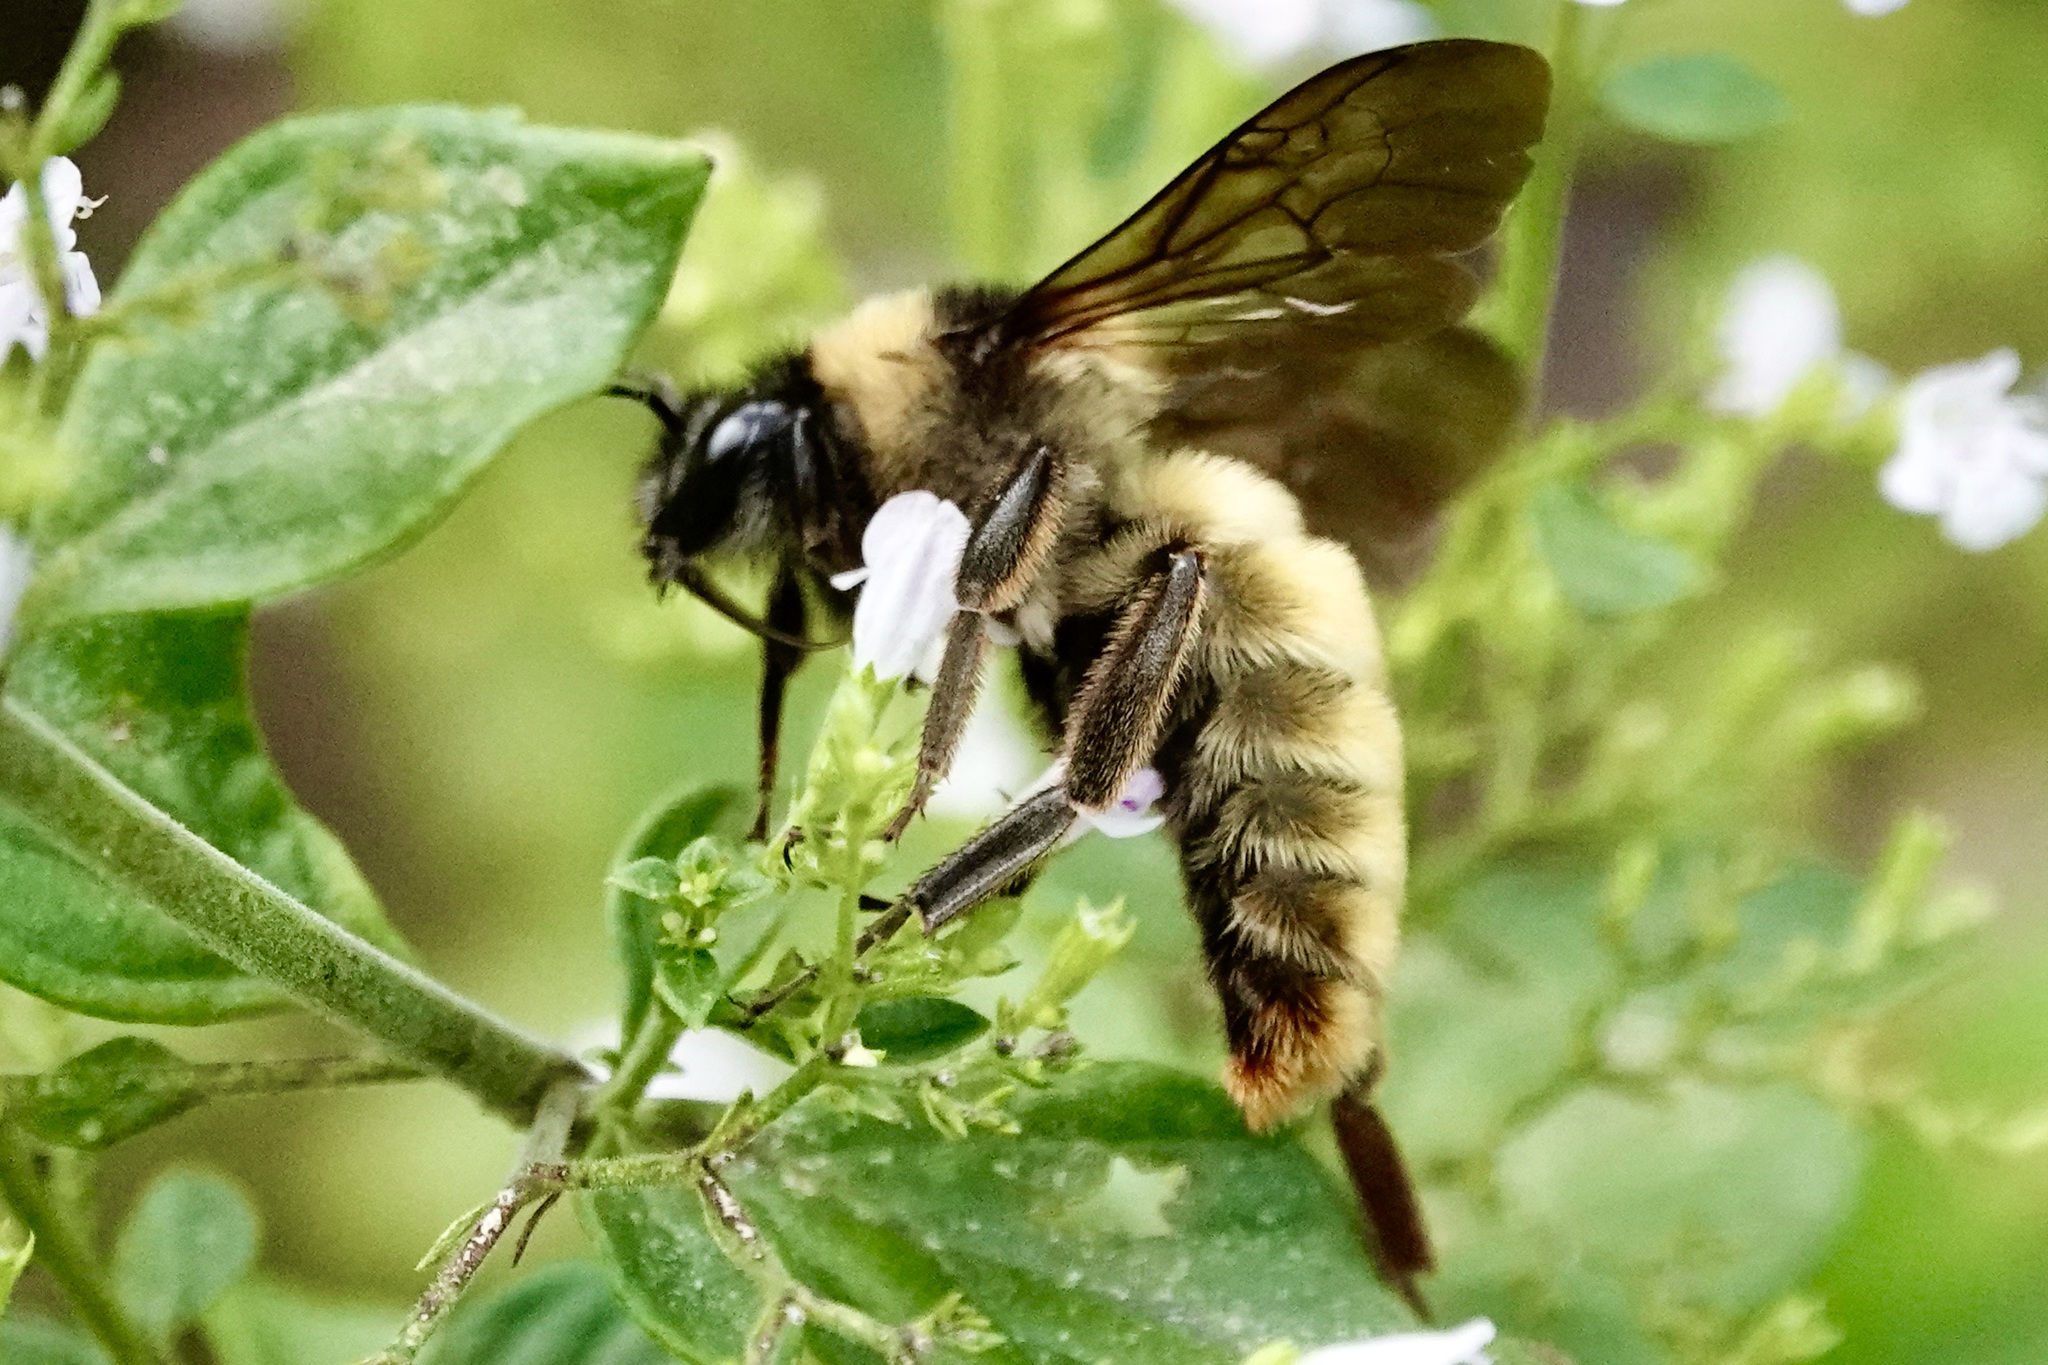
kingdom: Animalia
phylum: Arthropoda
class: Insecta
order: Hymenoptera
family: Apidae
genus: Bombus
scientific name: Bombus pensylvanicus
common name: Bumble bee
